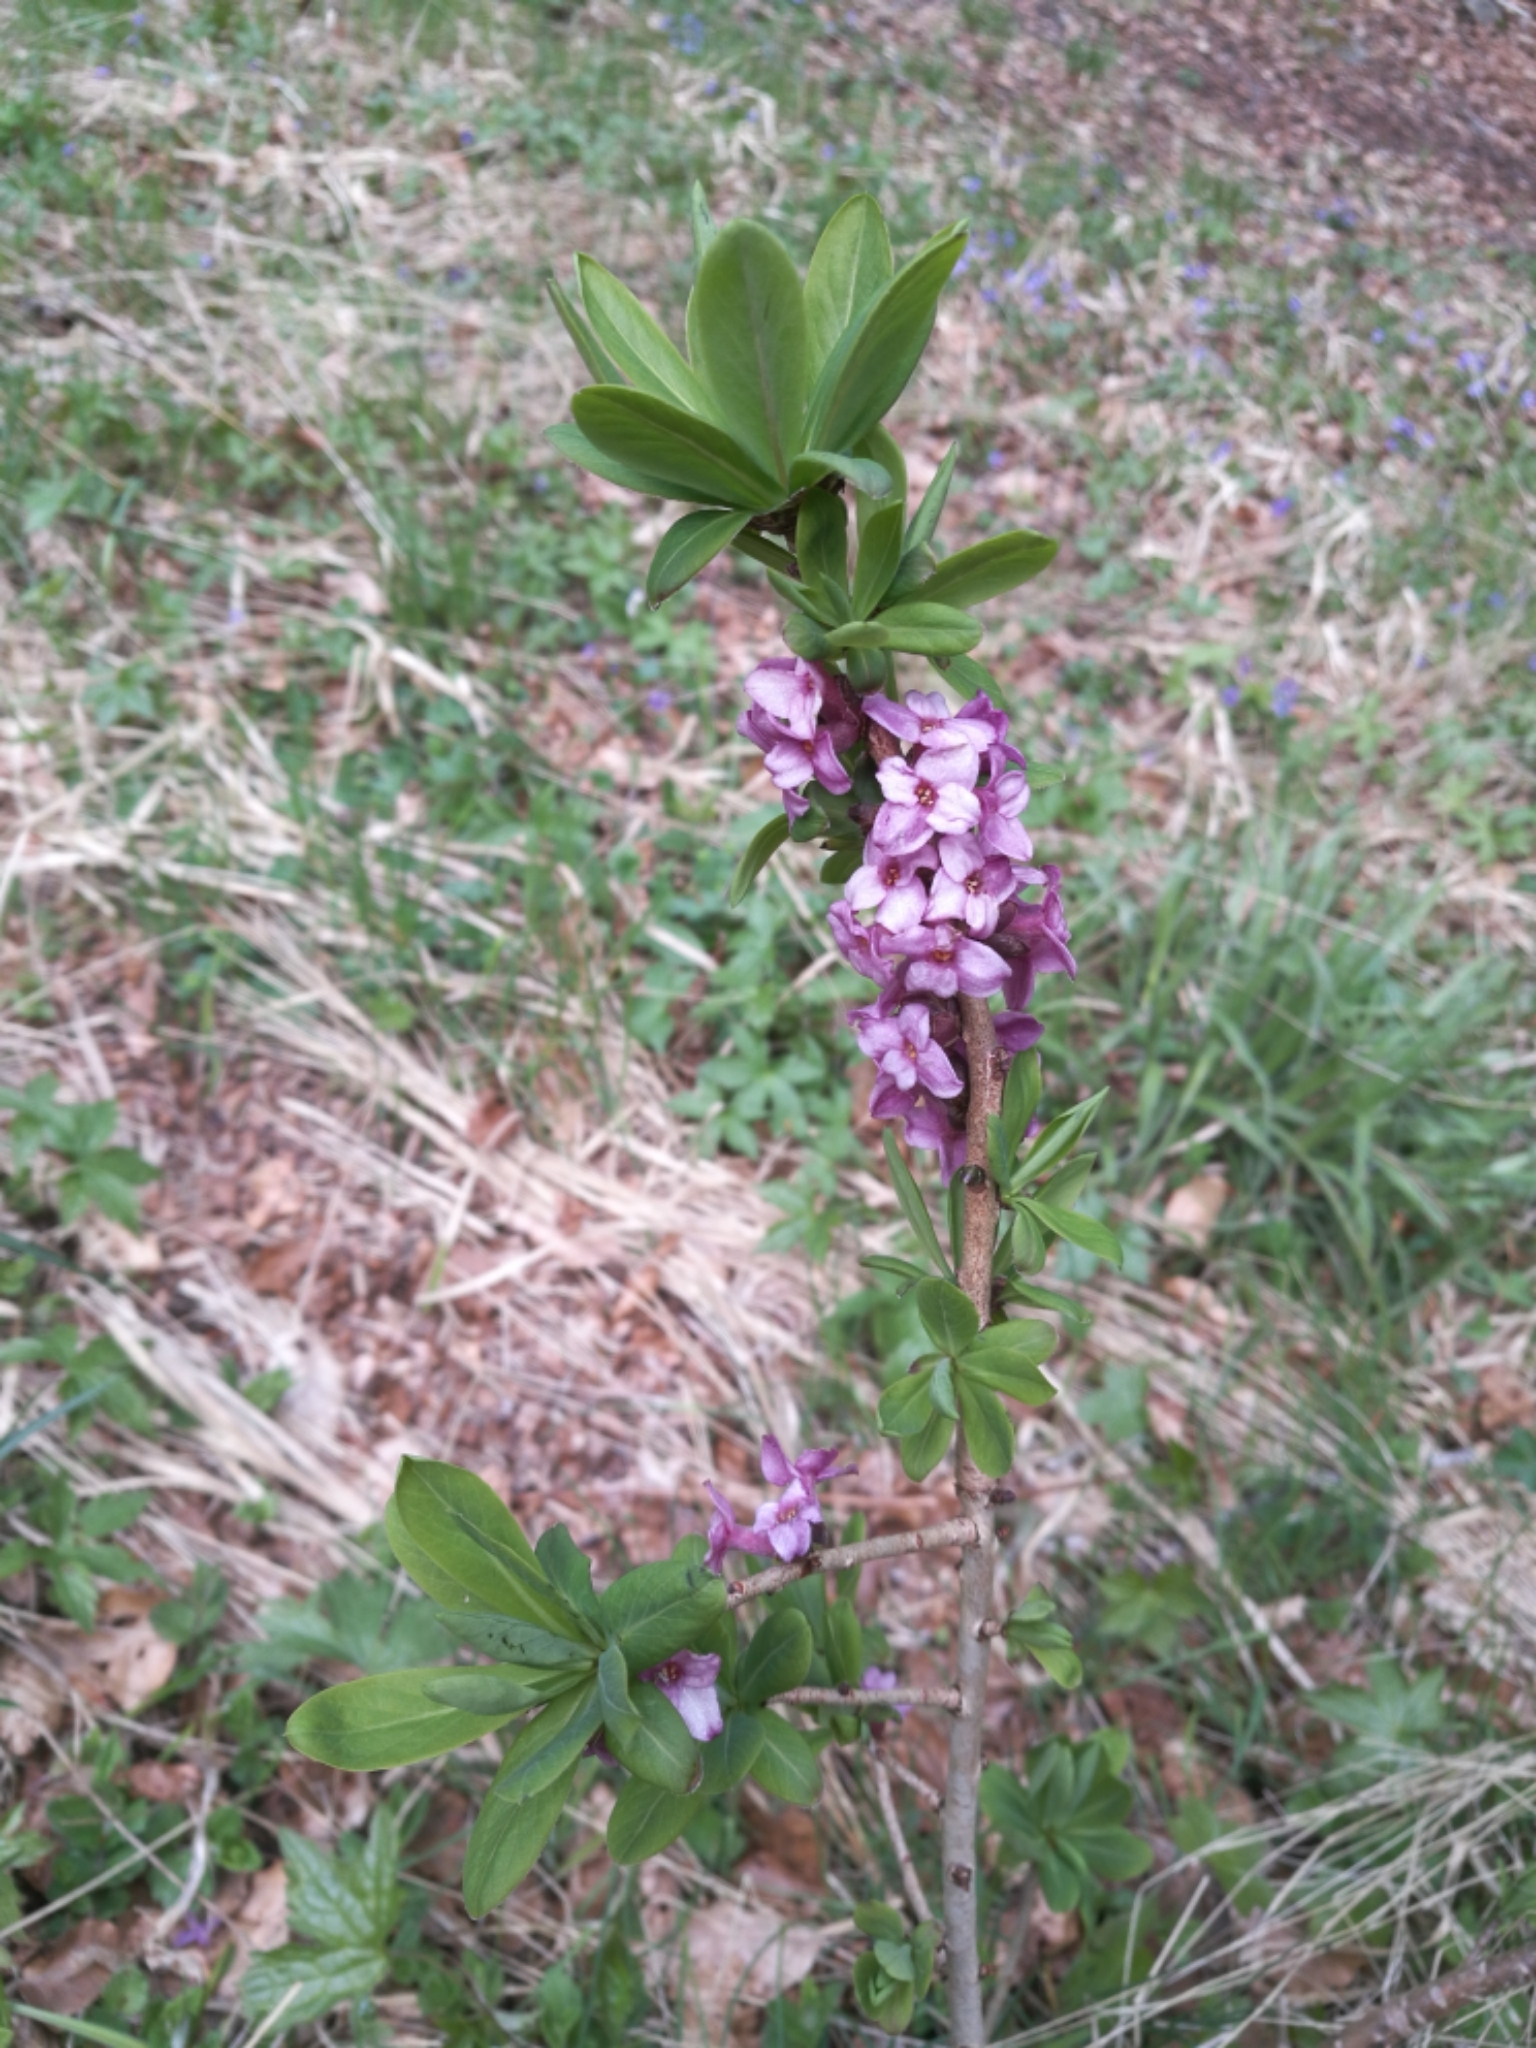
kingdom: Plantae
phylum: Tracheophyta
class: Magnoliopsida
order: Malvales
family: Thymelaeaceae
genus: Daphne
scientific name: Daphne mezereum
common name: Mezereon
